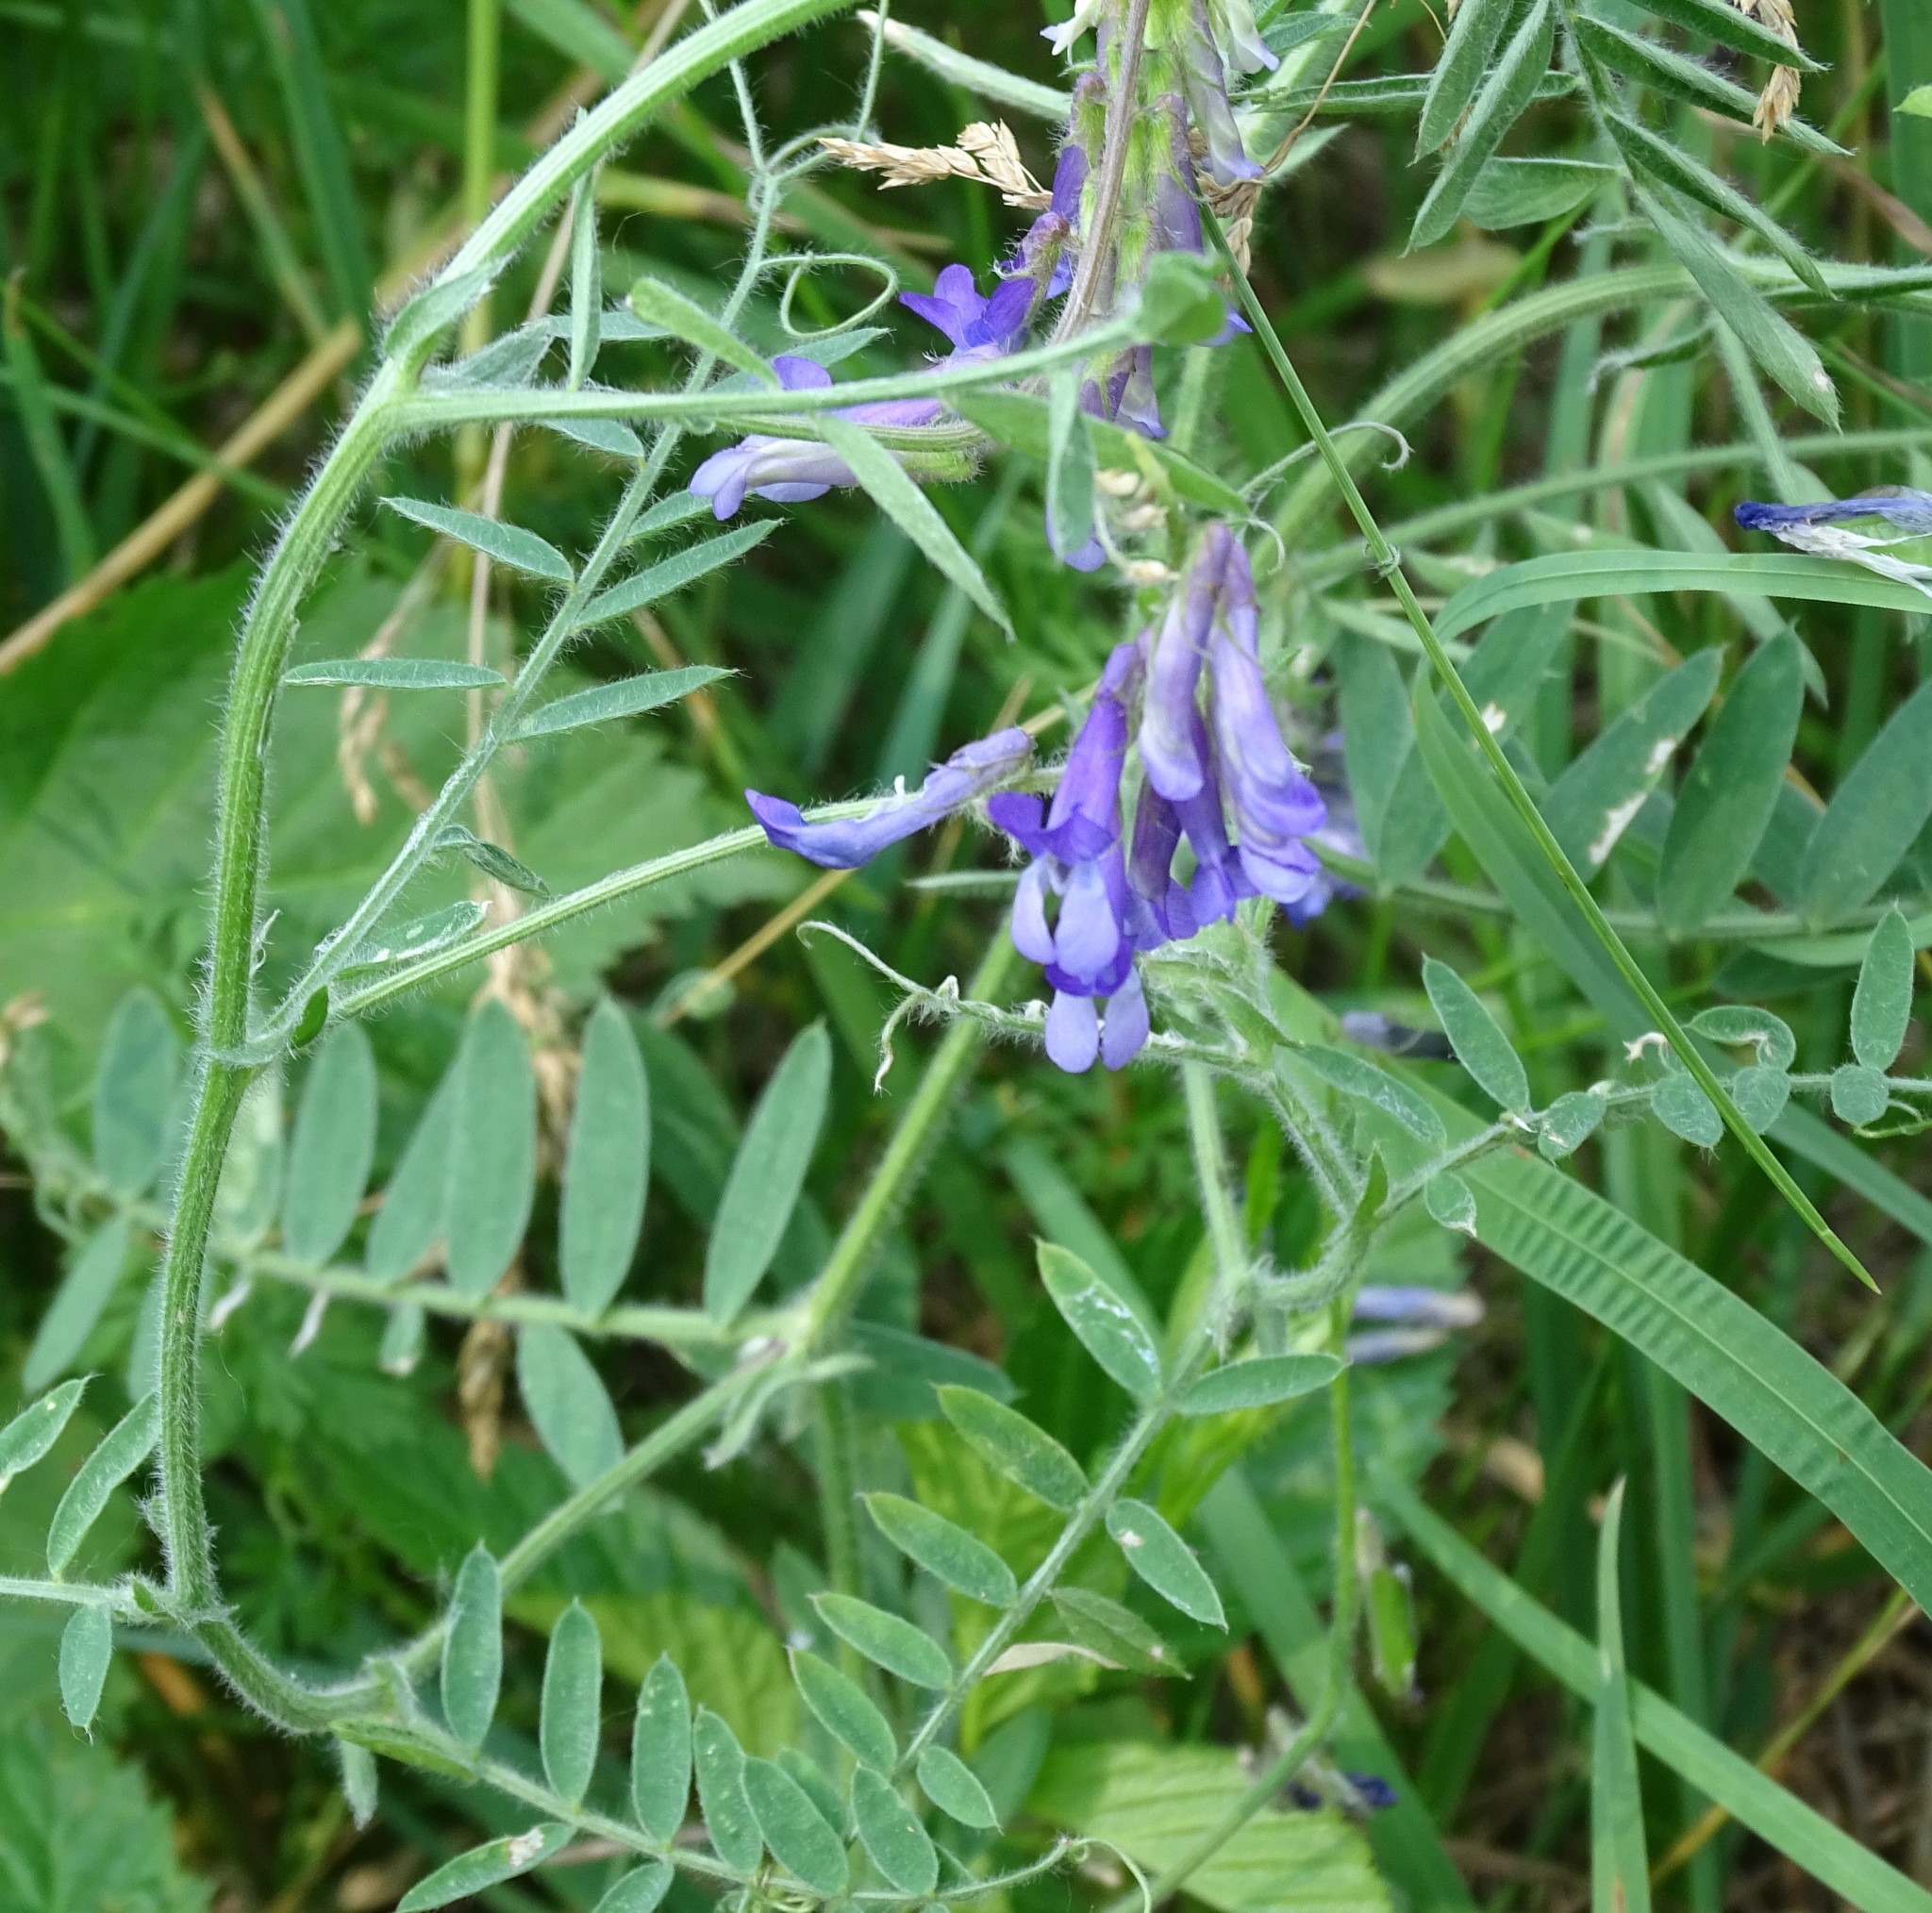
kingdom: Plantae
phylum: Tracheophyta
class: Magnoliopsida
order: Fabales
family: Fabaceae
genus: Vicia
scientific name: Vicia villosa
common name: Fodder vetch
